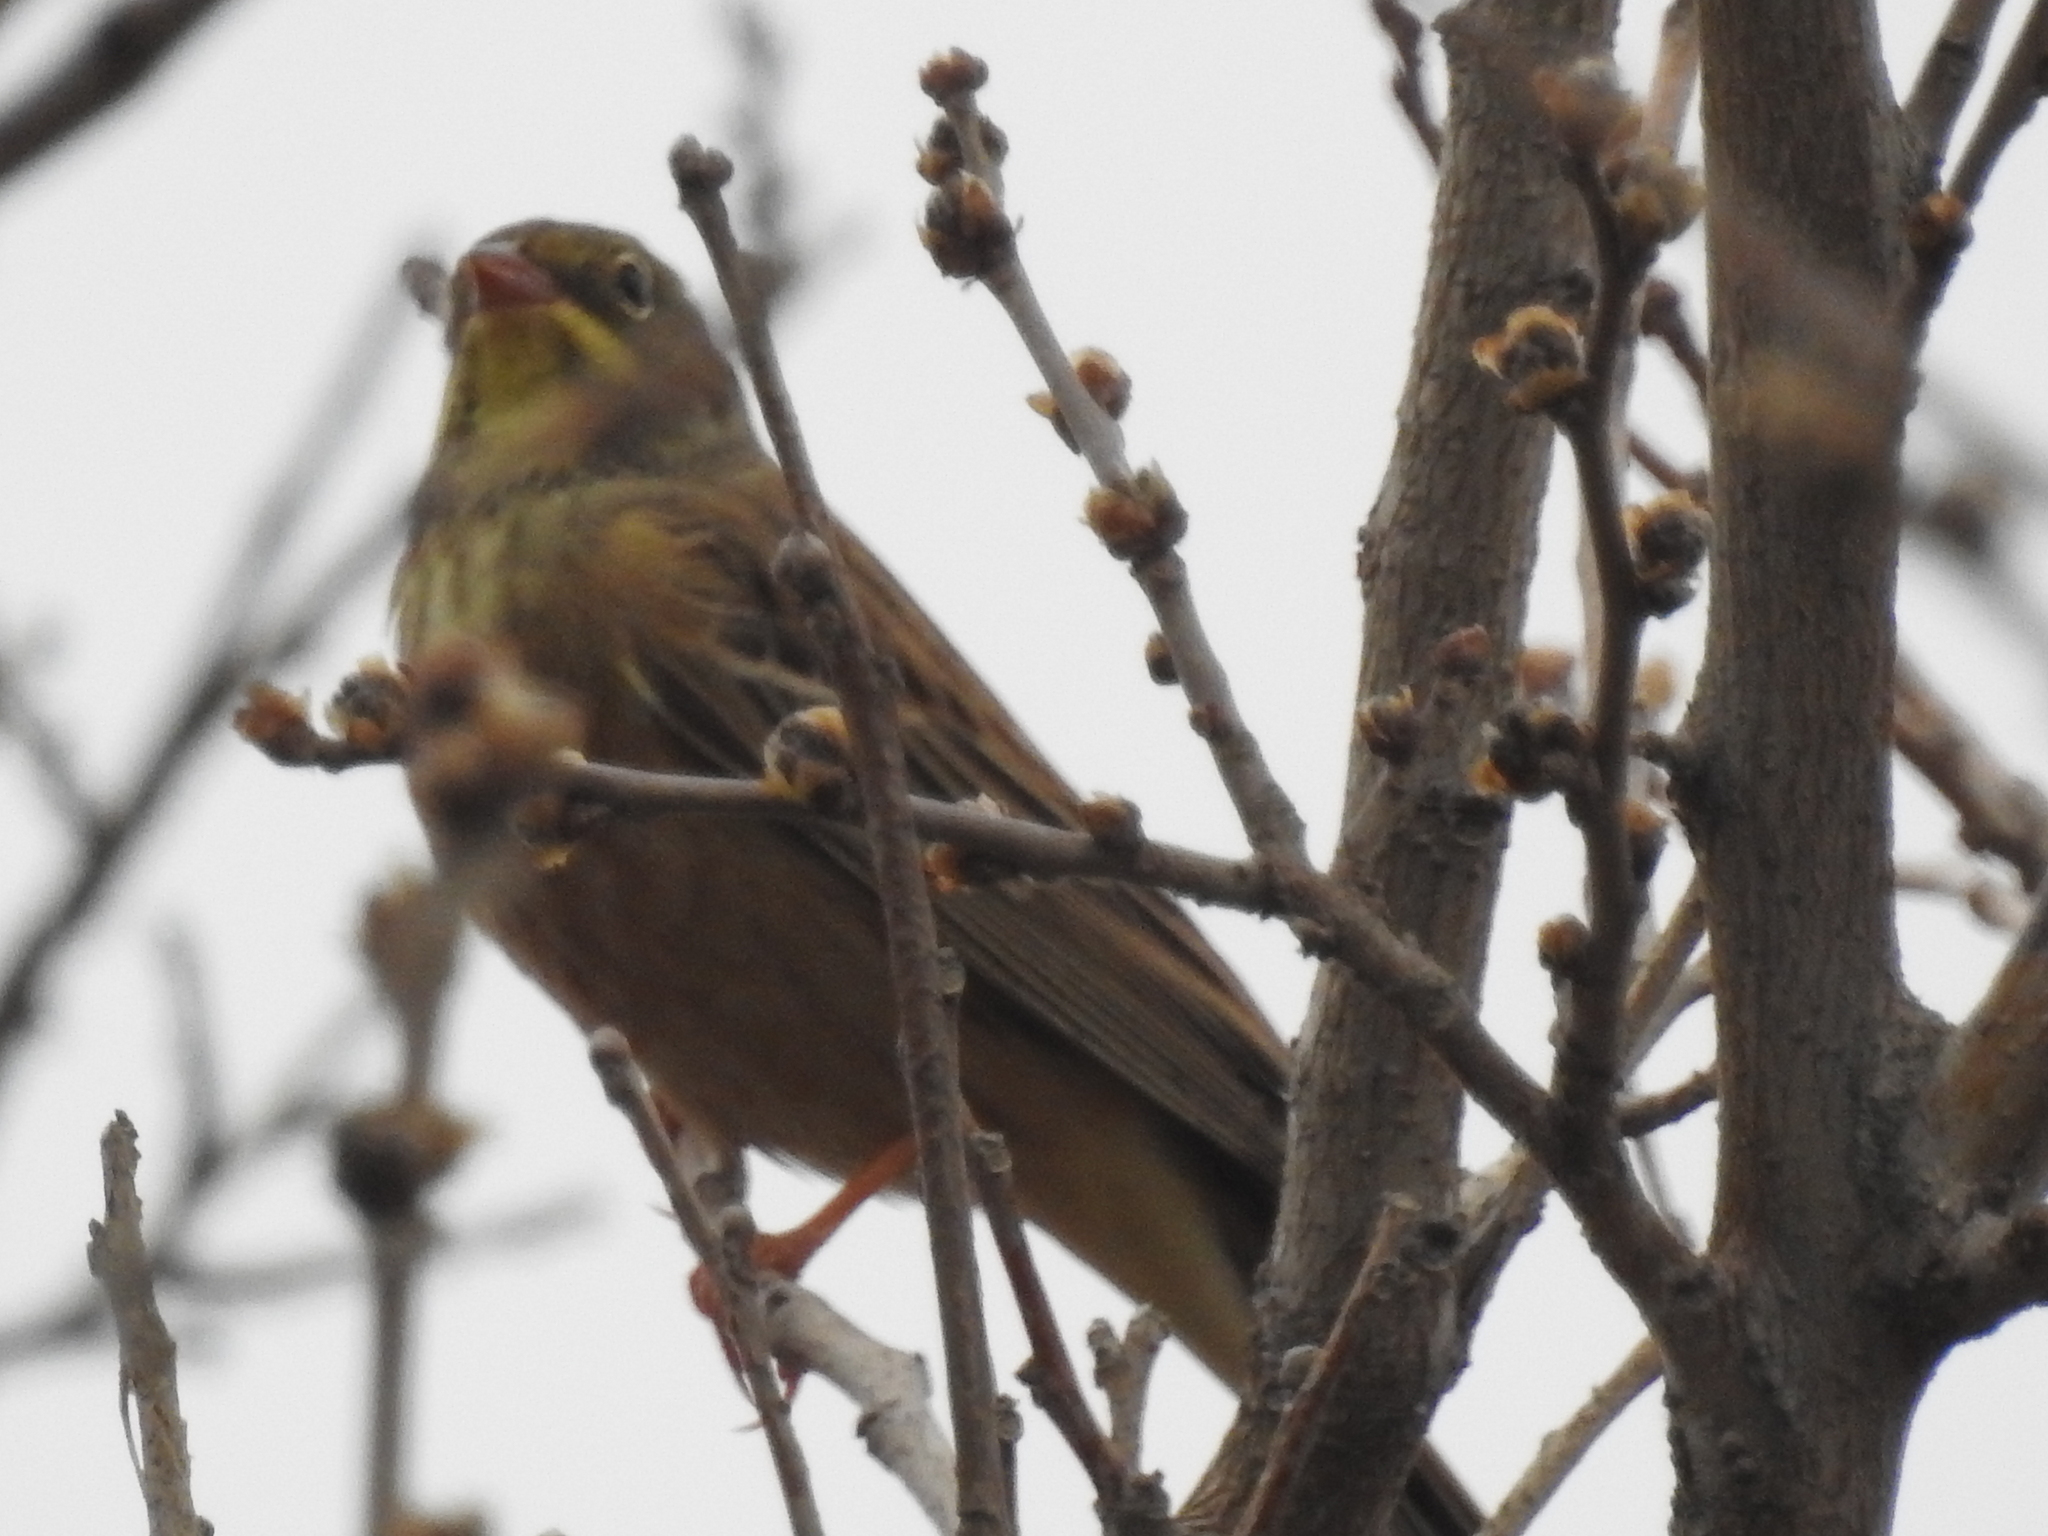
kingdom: Animalia
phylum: Chordata
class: Aves
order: Passeriformes
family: Emberizidae
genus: Emberiza
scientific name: Emberiza hortulana
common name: Ortolan bunting
